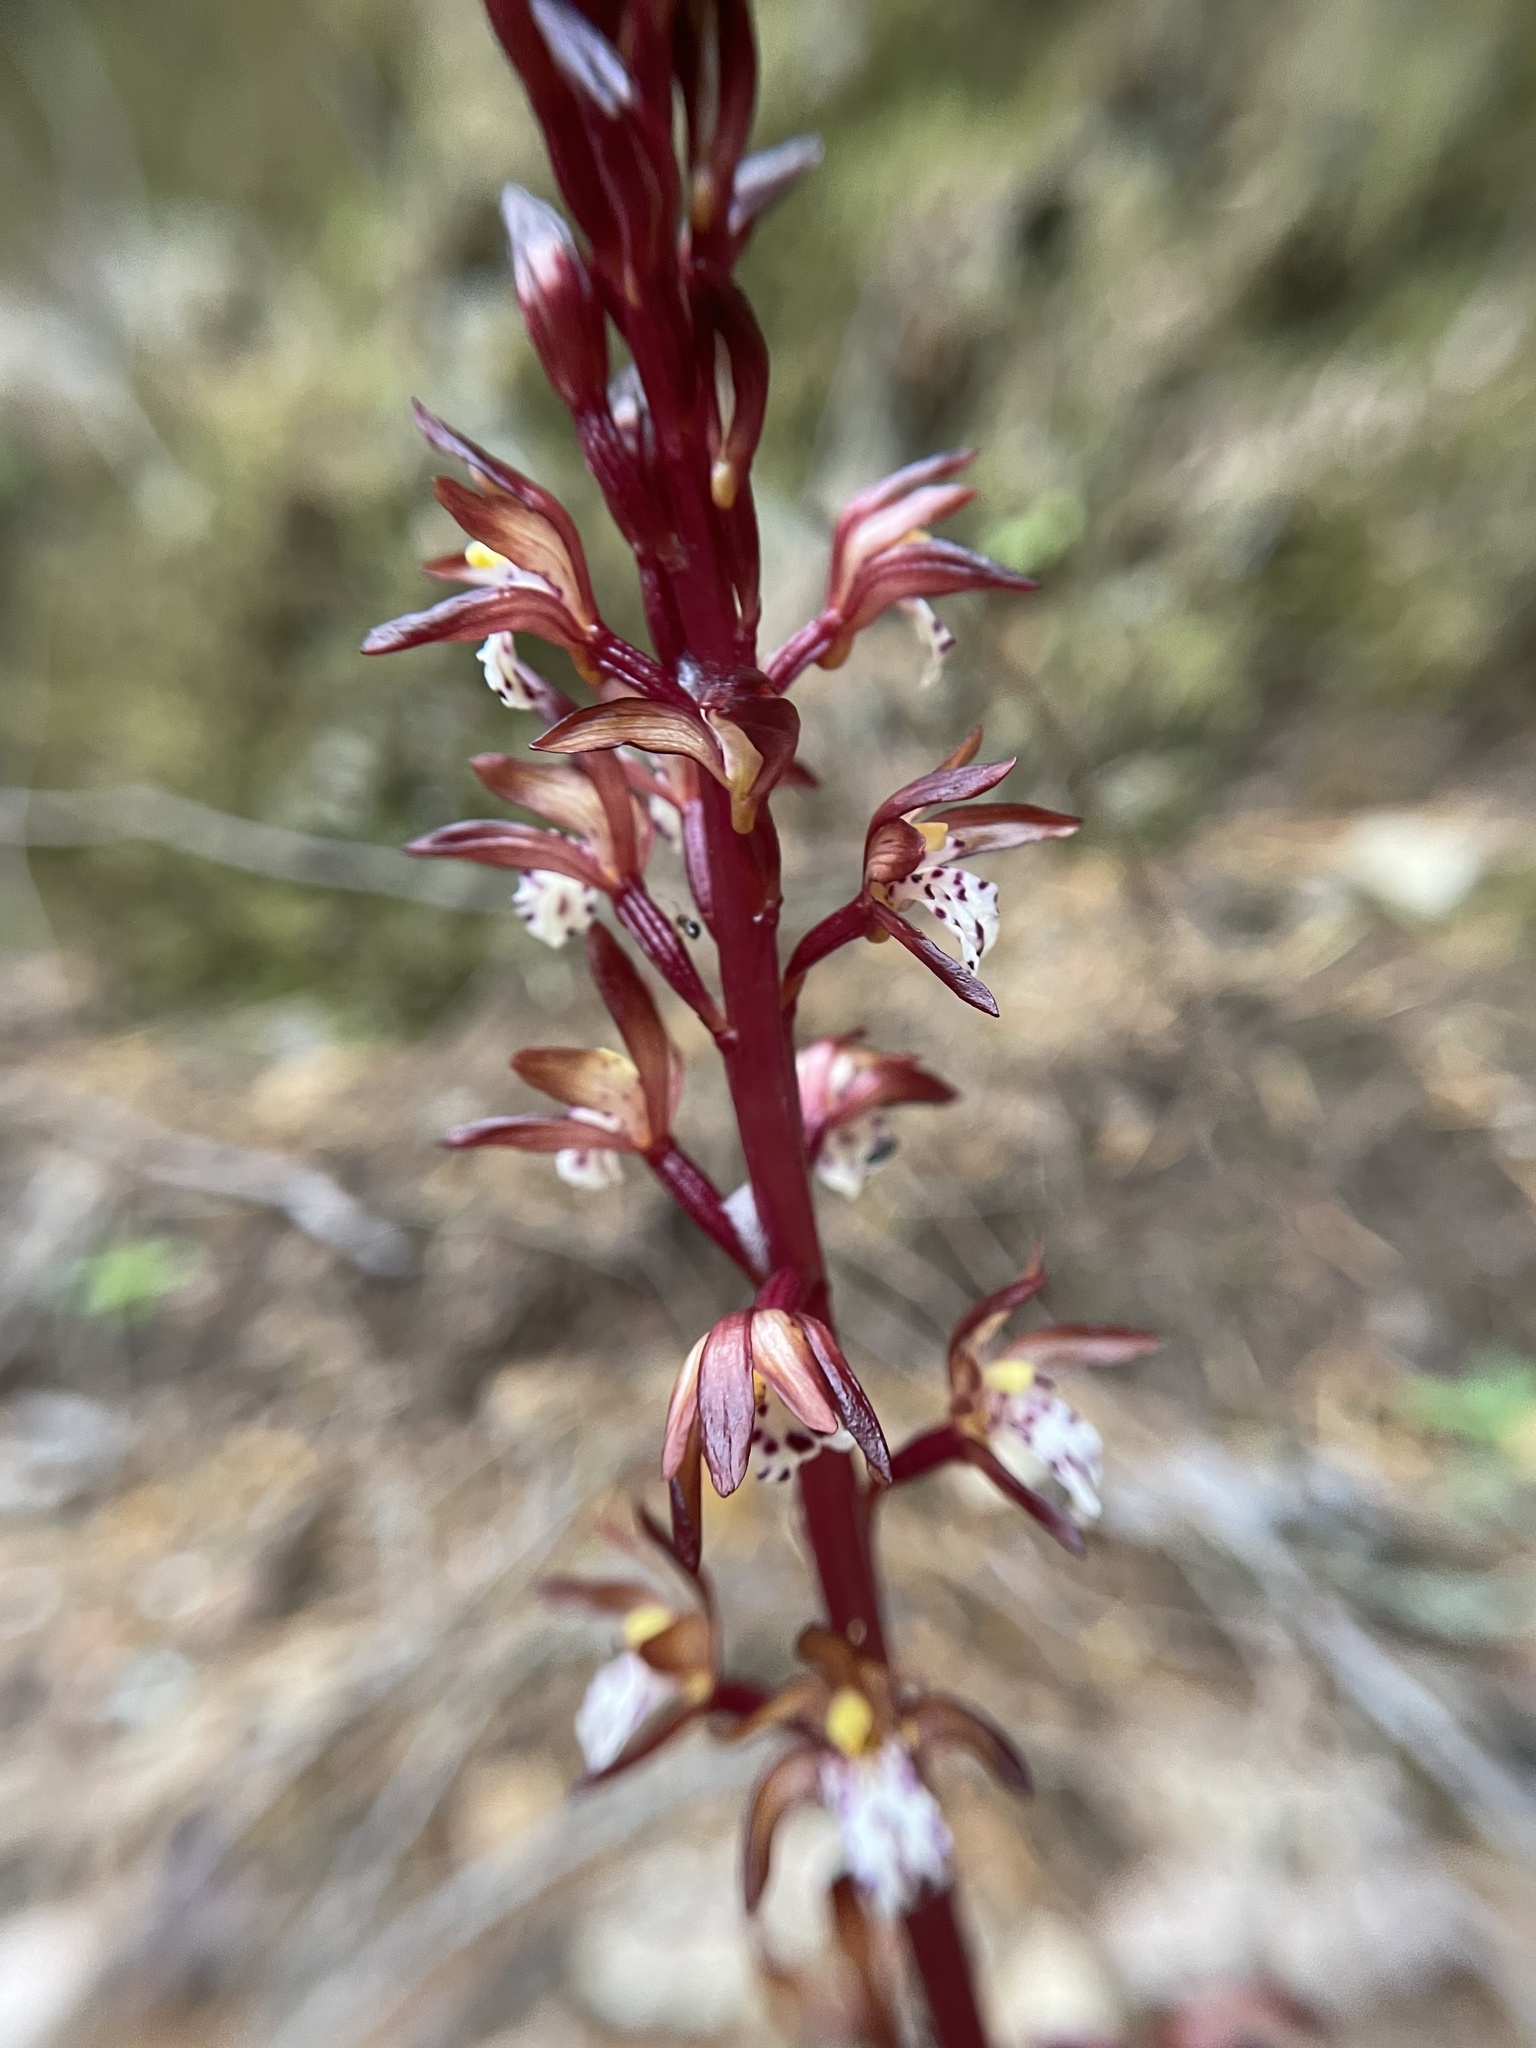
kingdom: Plantae
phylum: Tracheophyta
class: Liliopsida
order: Asparagales
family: Orchidaceae
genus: Corallorhiza
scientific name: Corallorhiza maculata
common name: Spotted coralroot
